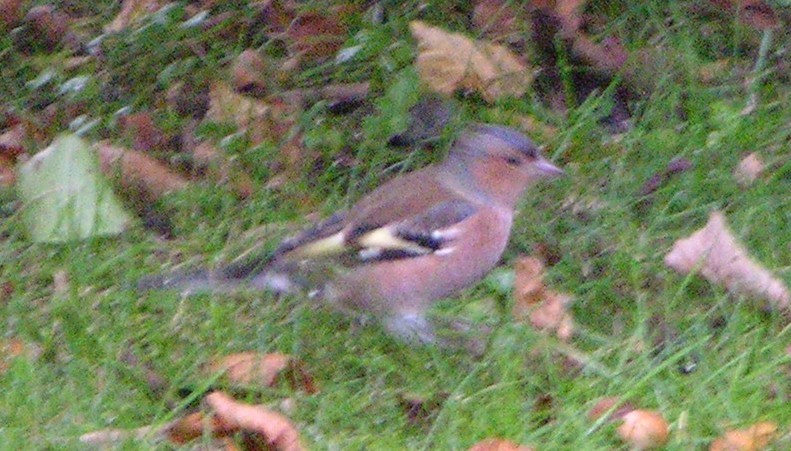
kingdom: Animalia
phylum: Chordata
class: Aves
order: Passeriformes
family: Fringillidae
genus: Fringilla
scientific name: Fringilla coelebs
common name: Common chaffinch
